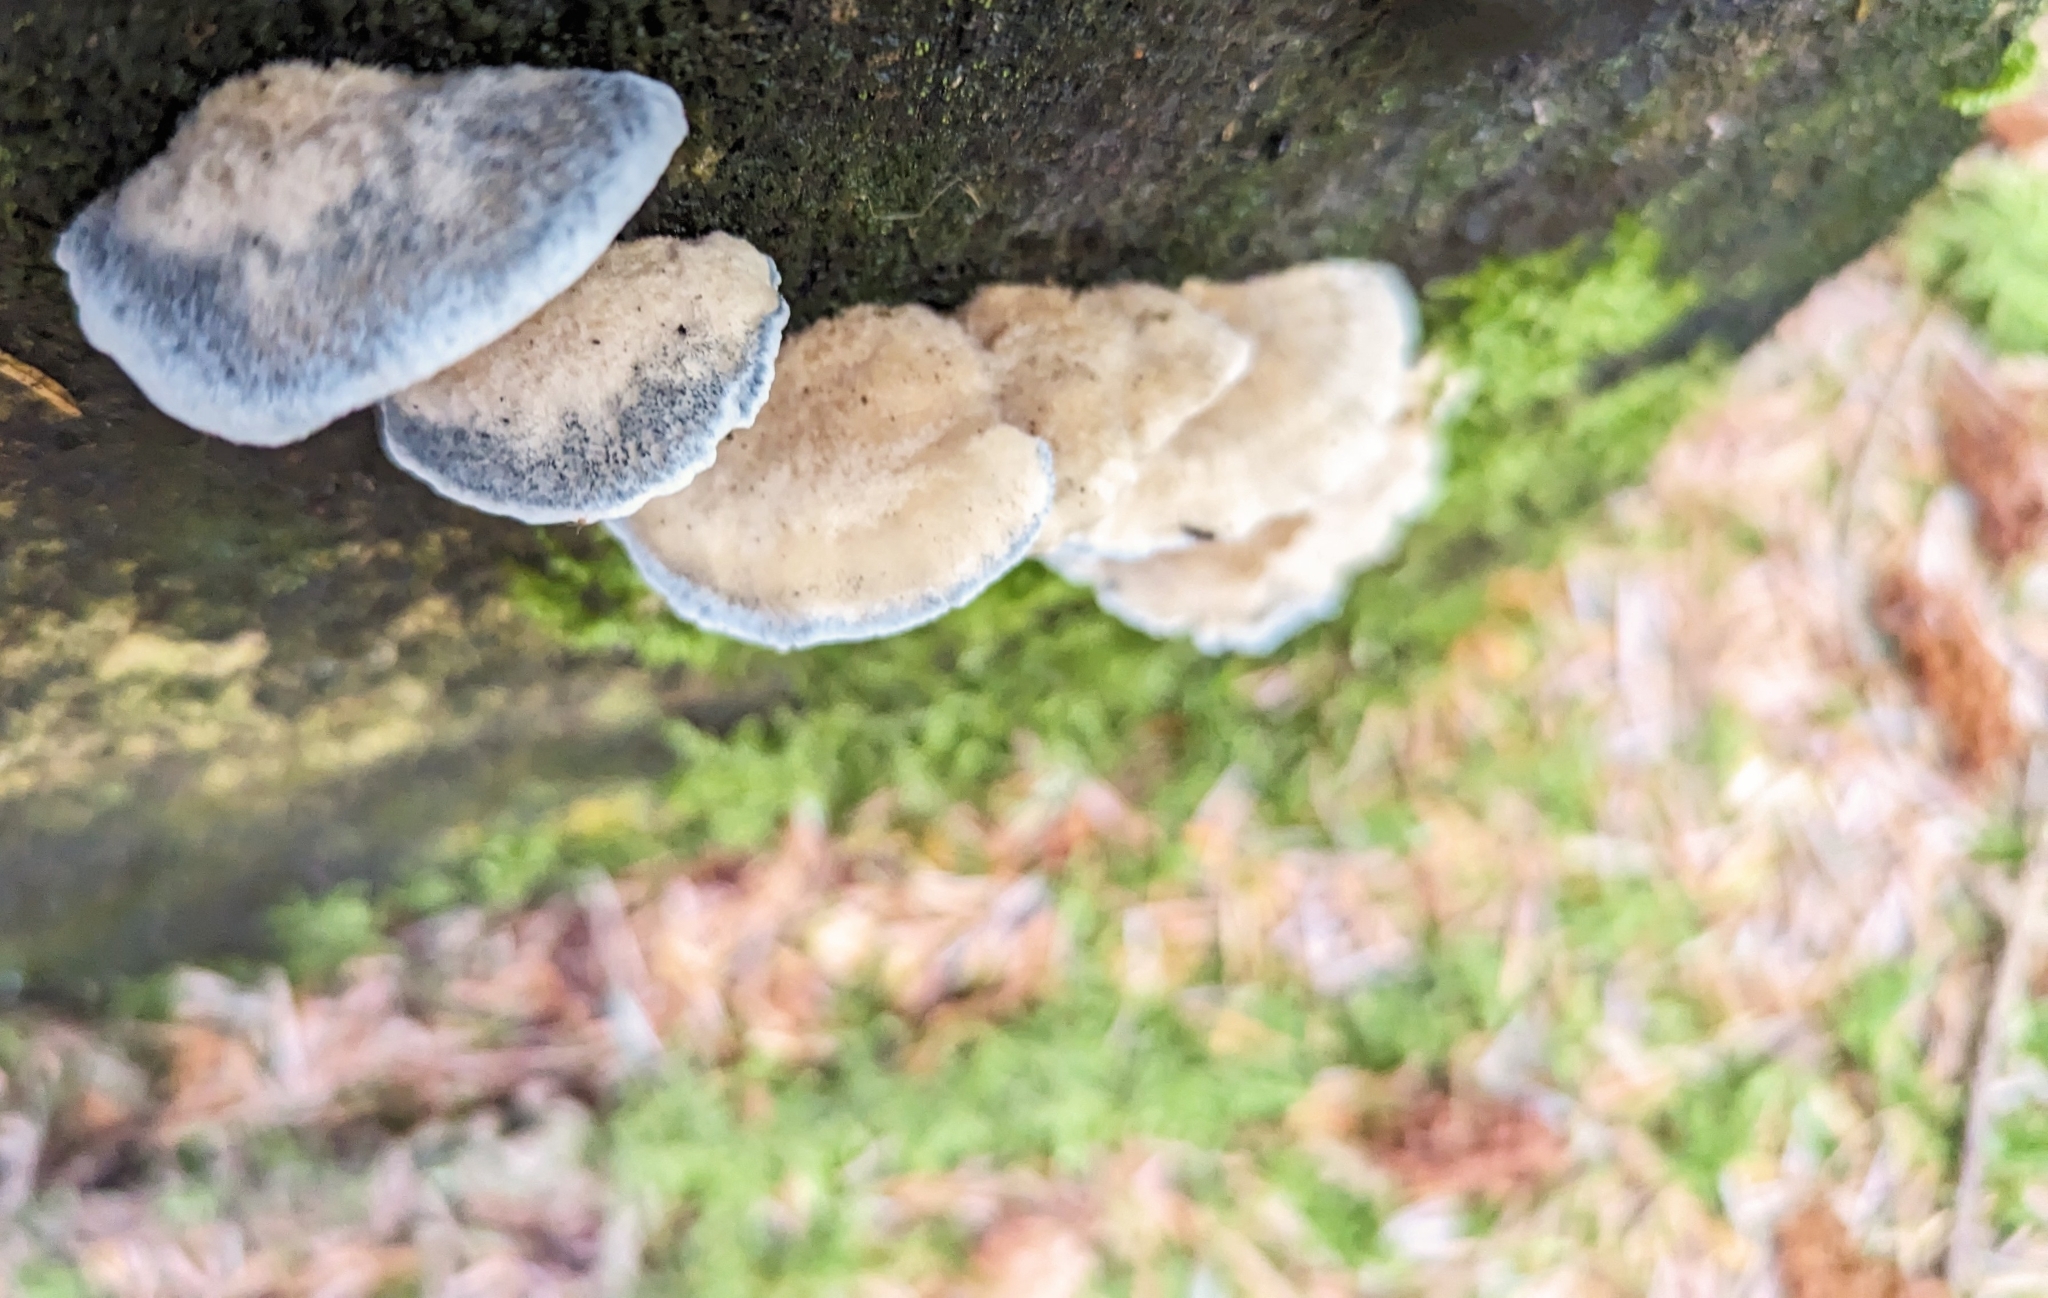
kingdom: Fungi
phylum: Basidiomycota
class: Agaricomycetes
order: Polyporales
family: Polyporaceae
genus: Cyanosporus
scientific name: Cyanosporus caesius
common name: Blue cheese polypore
